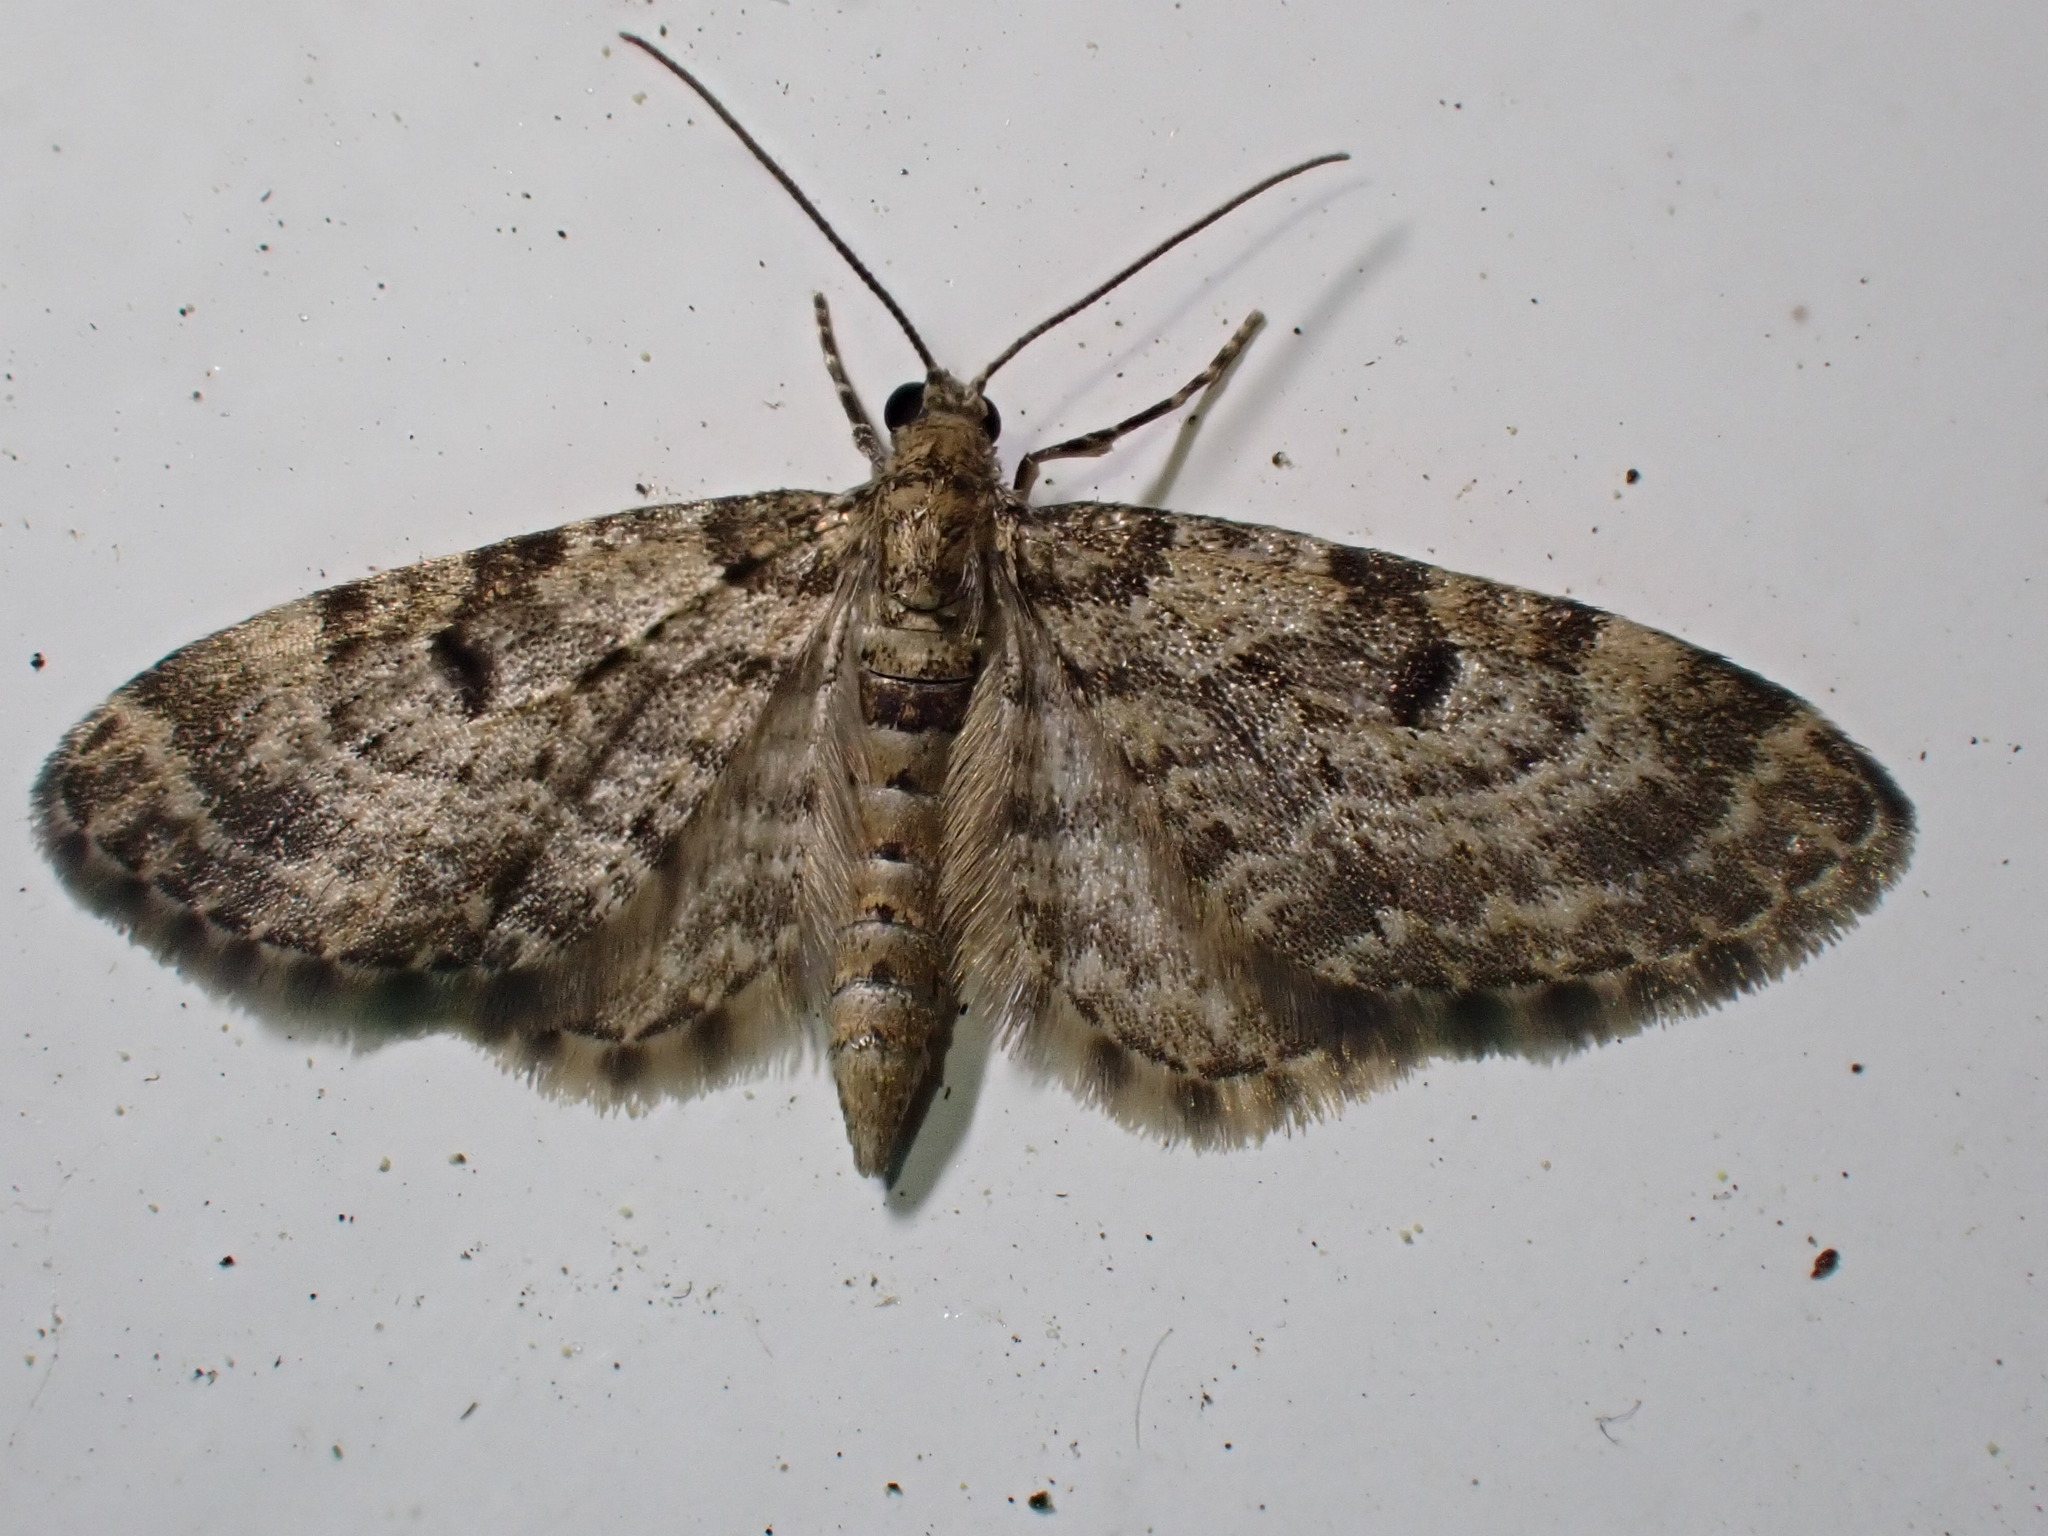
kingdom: Animalia
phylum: Arthropoda
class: Insecta
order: Lepidoptera
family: Geometridae
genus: Eupithecia
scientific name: Eupithecia tantillaria
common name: Dwarf pug
